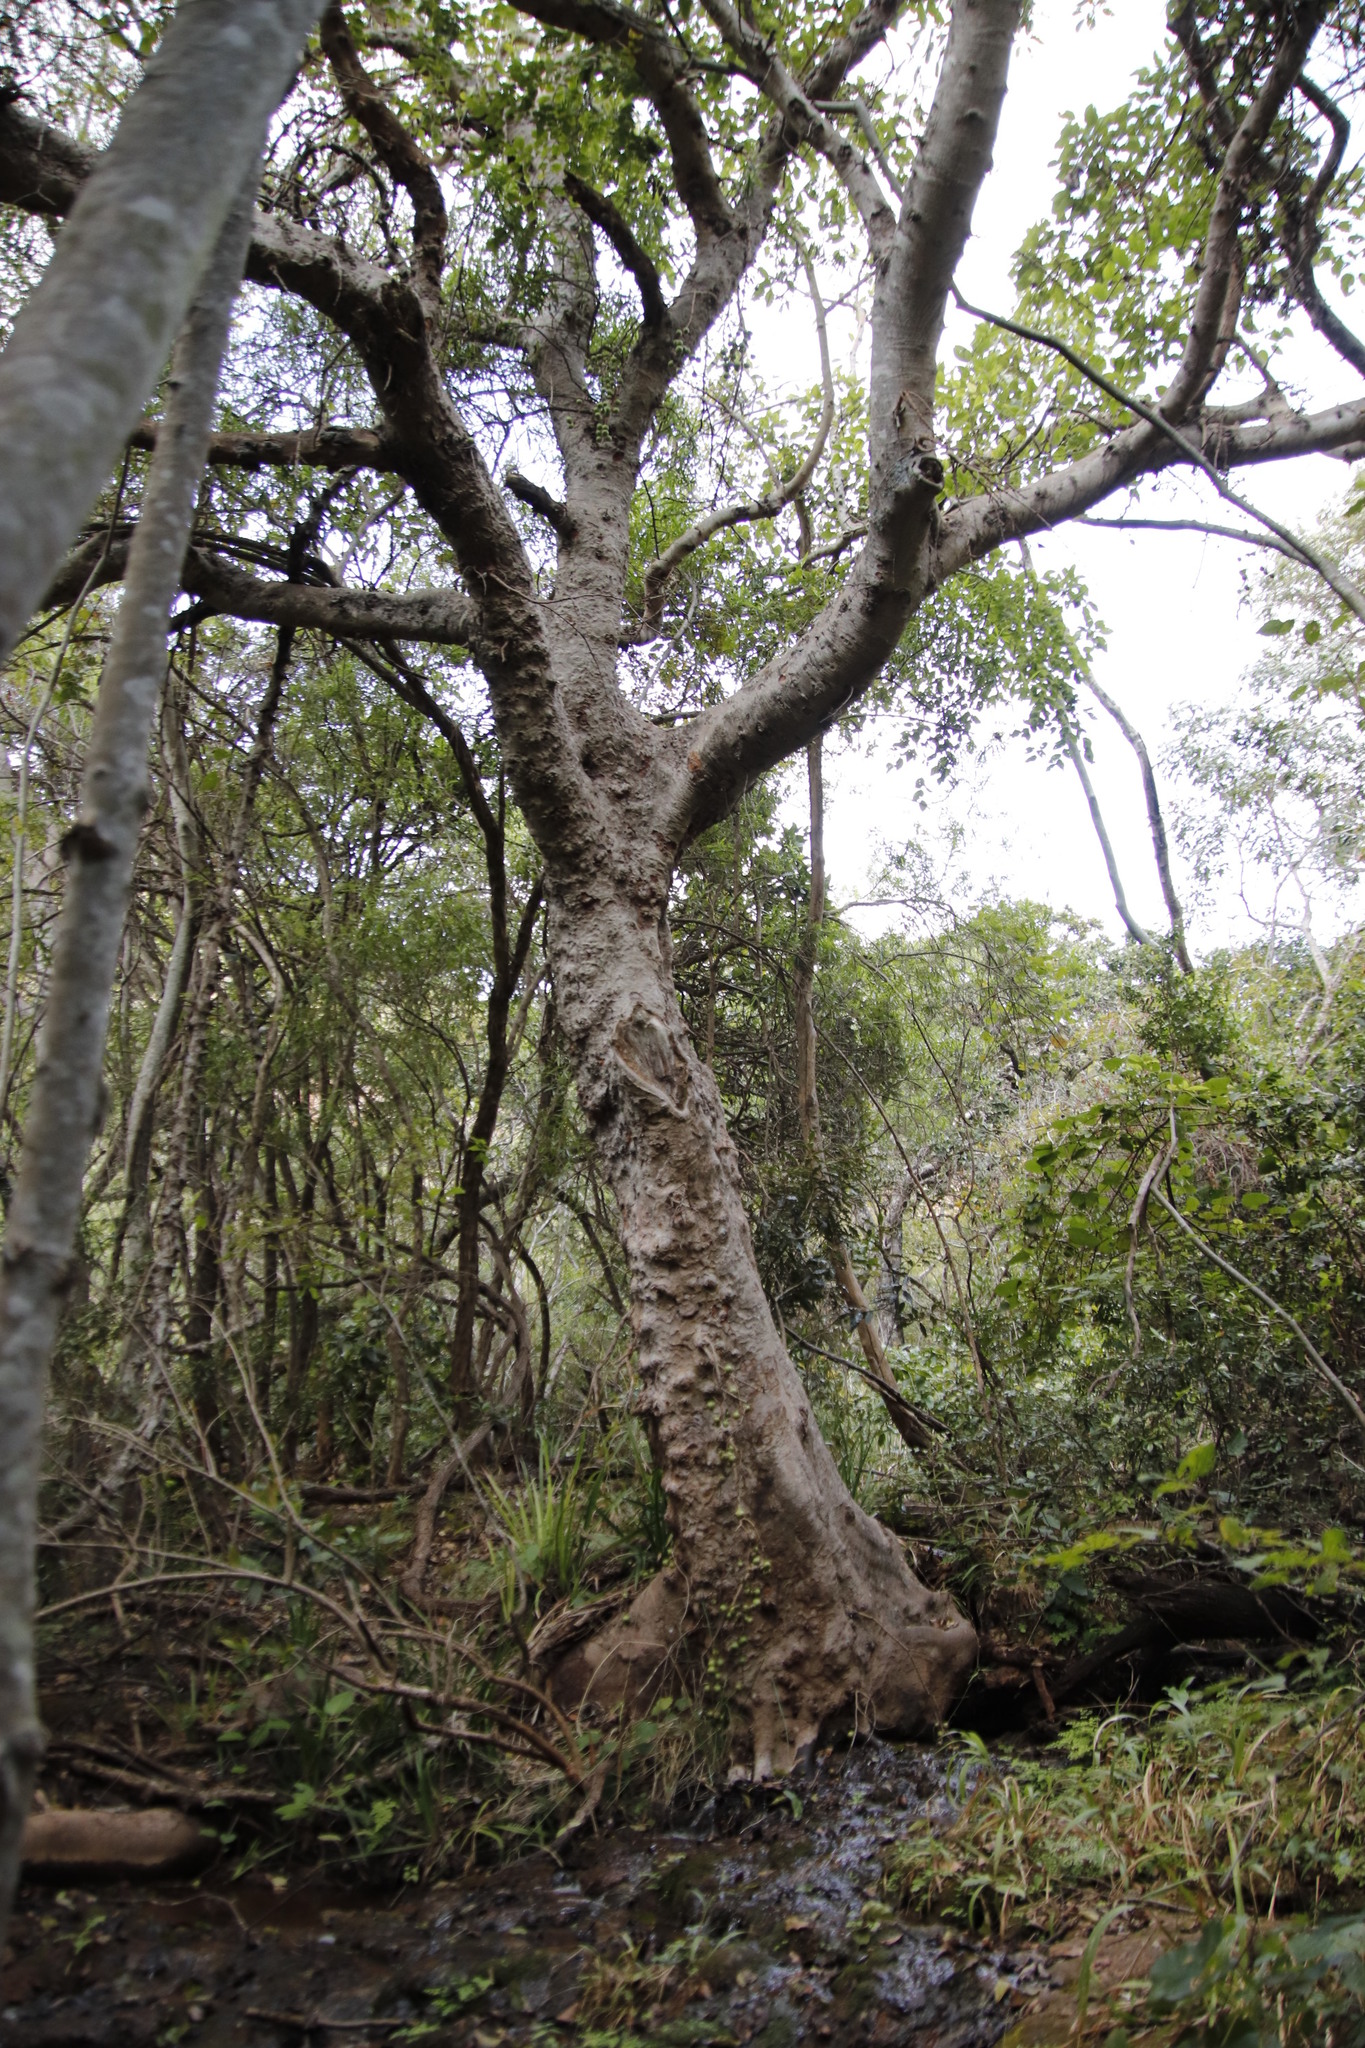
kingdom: Plantae
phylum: Tracheophyta
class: Magnoliopsida
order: Rosales
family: Moraceae
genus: Ficus
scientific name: Ficus sur
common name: Cape fig
